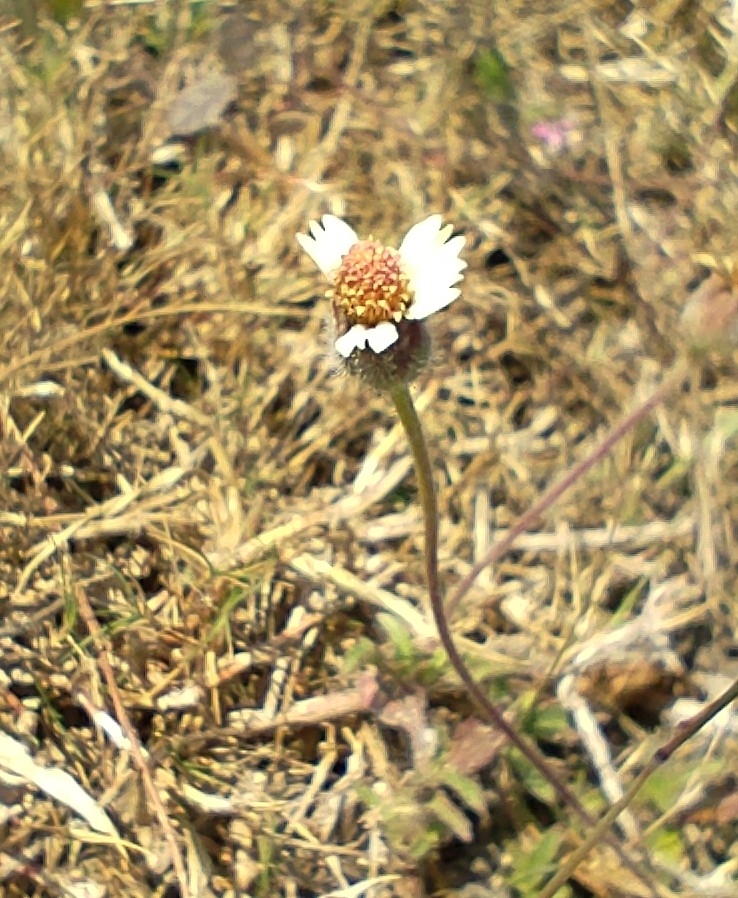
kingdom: Plantae
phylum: Tracheophyta
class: Magnoliopsida
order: Asterales
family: Asteraceae
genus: Tridax
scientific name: Tridax procumbens
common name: Coatbuttons
